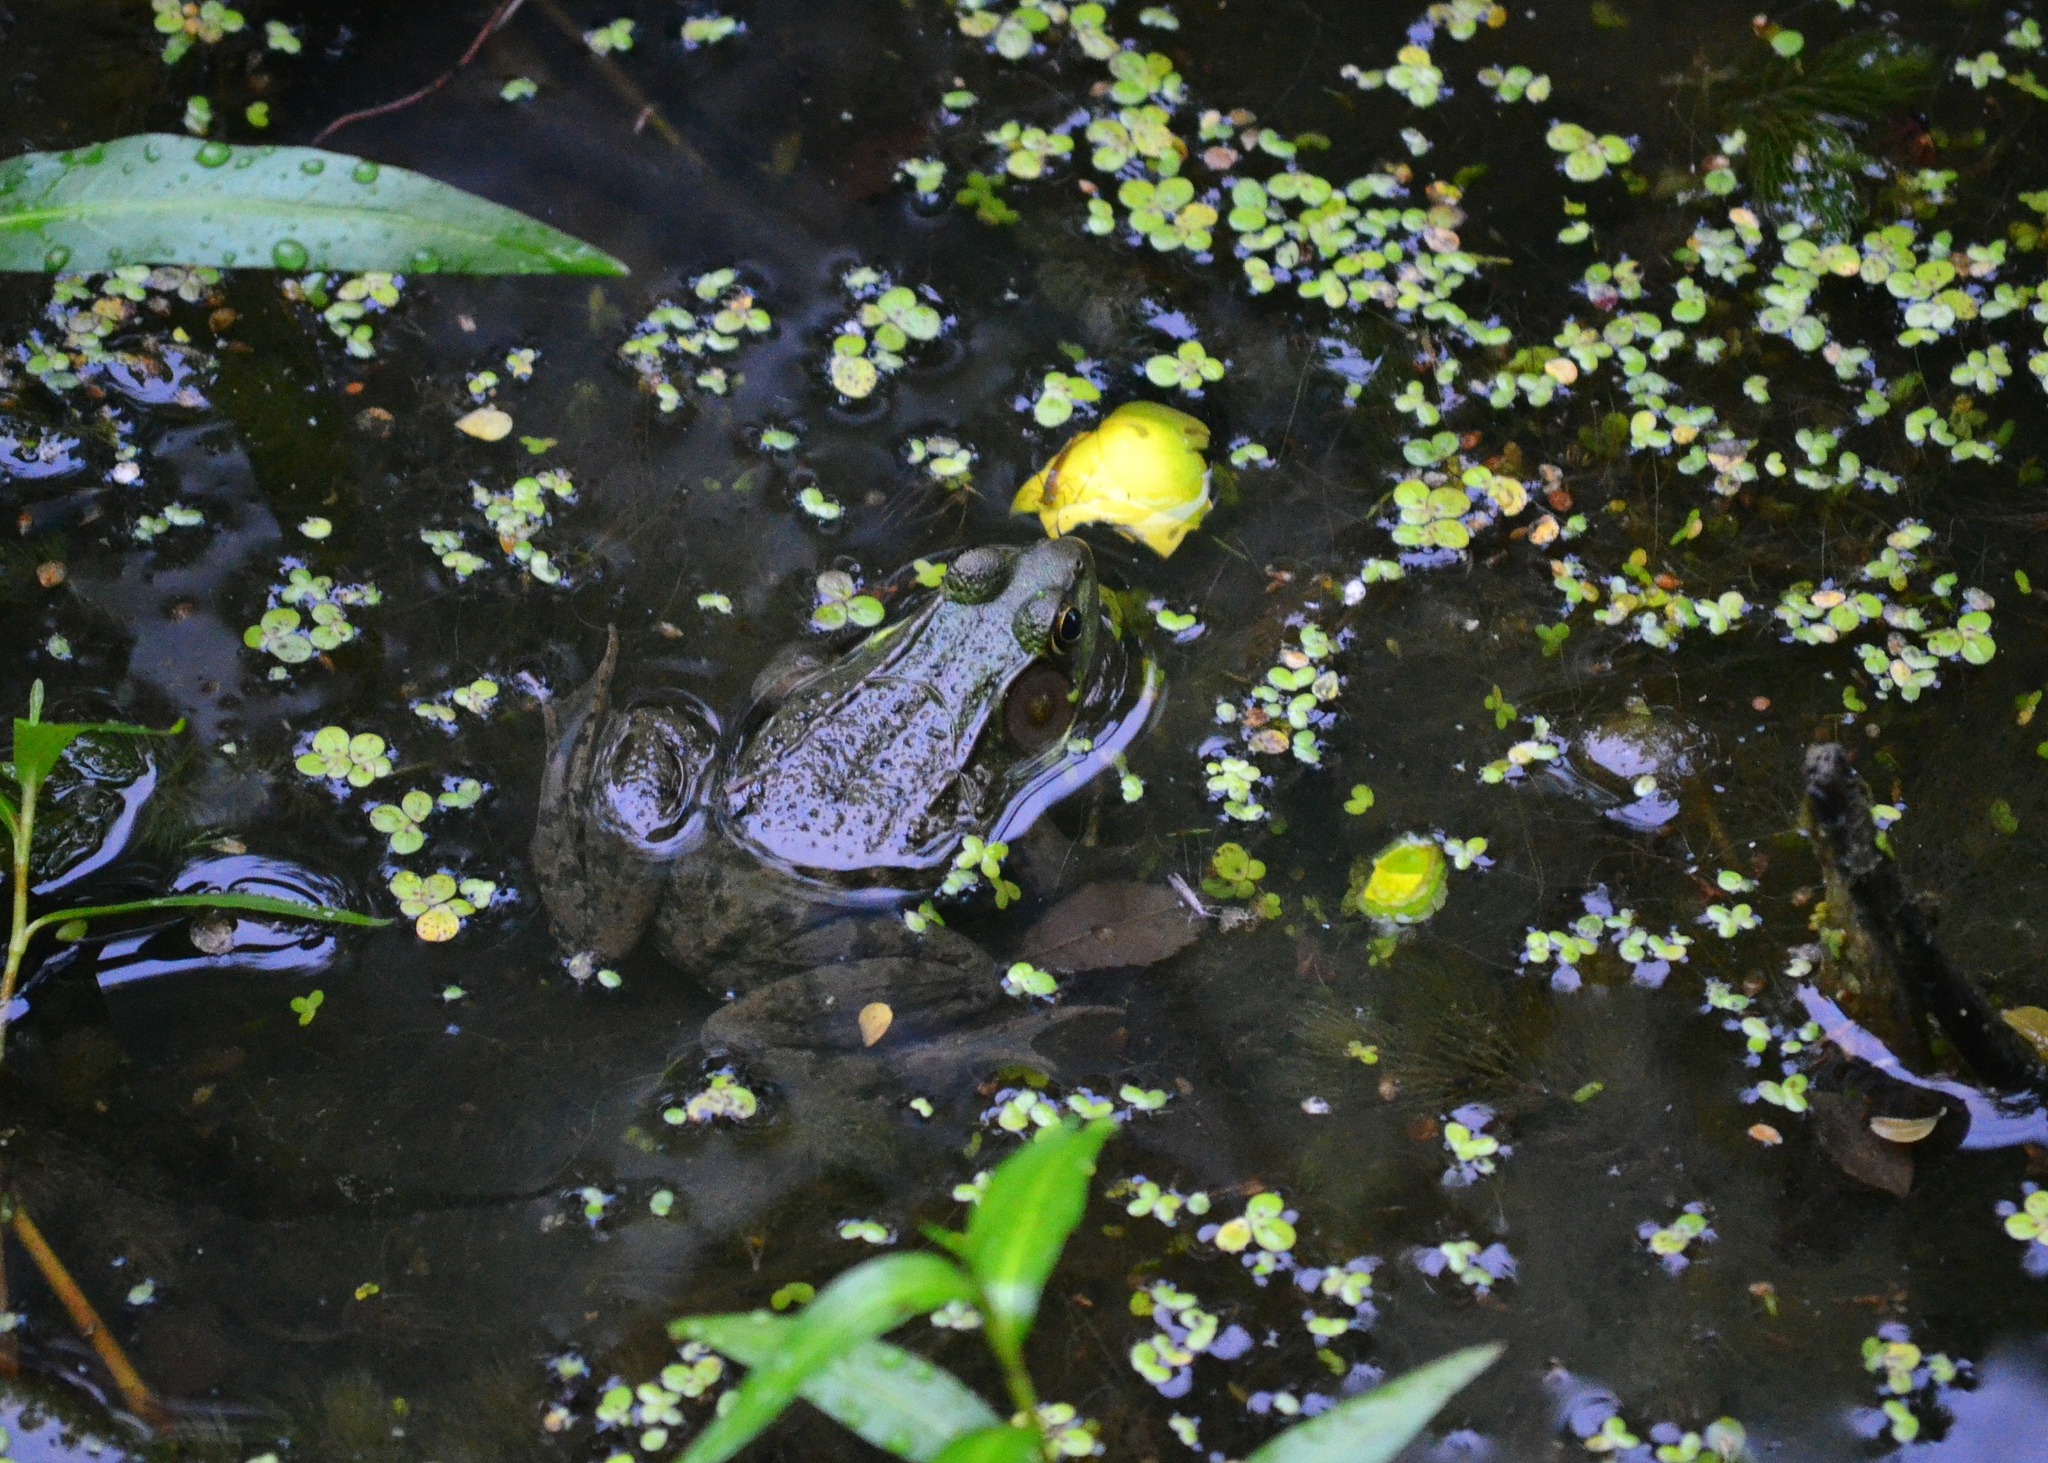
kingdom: Animalia
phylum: Chordata
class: Amphibia
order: Anura
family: Ranidae
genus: Lithobates
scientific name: Lithobates clamitans
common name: Green frog
